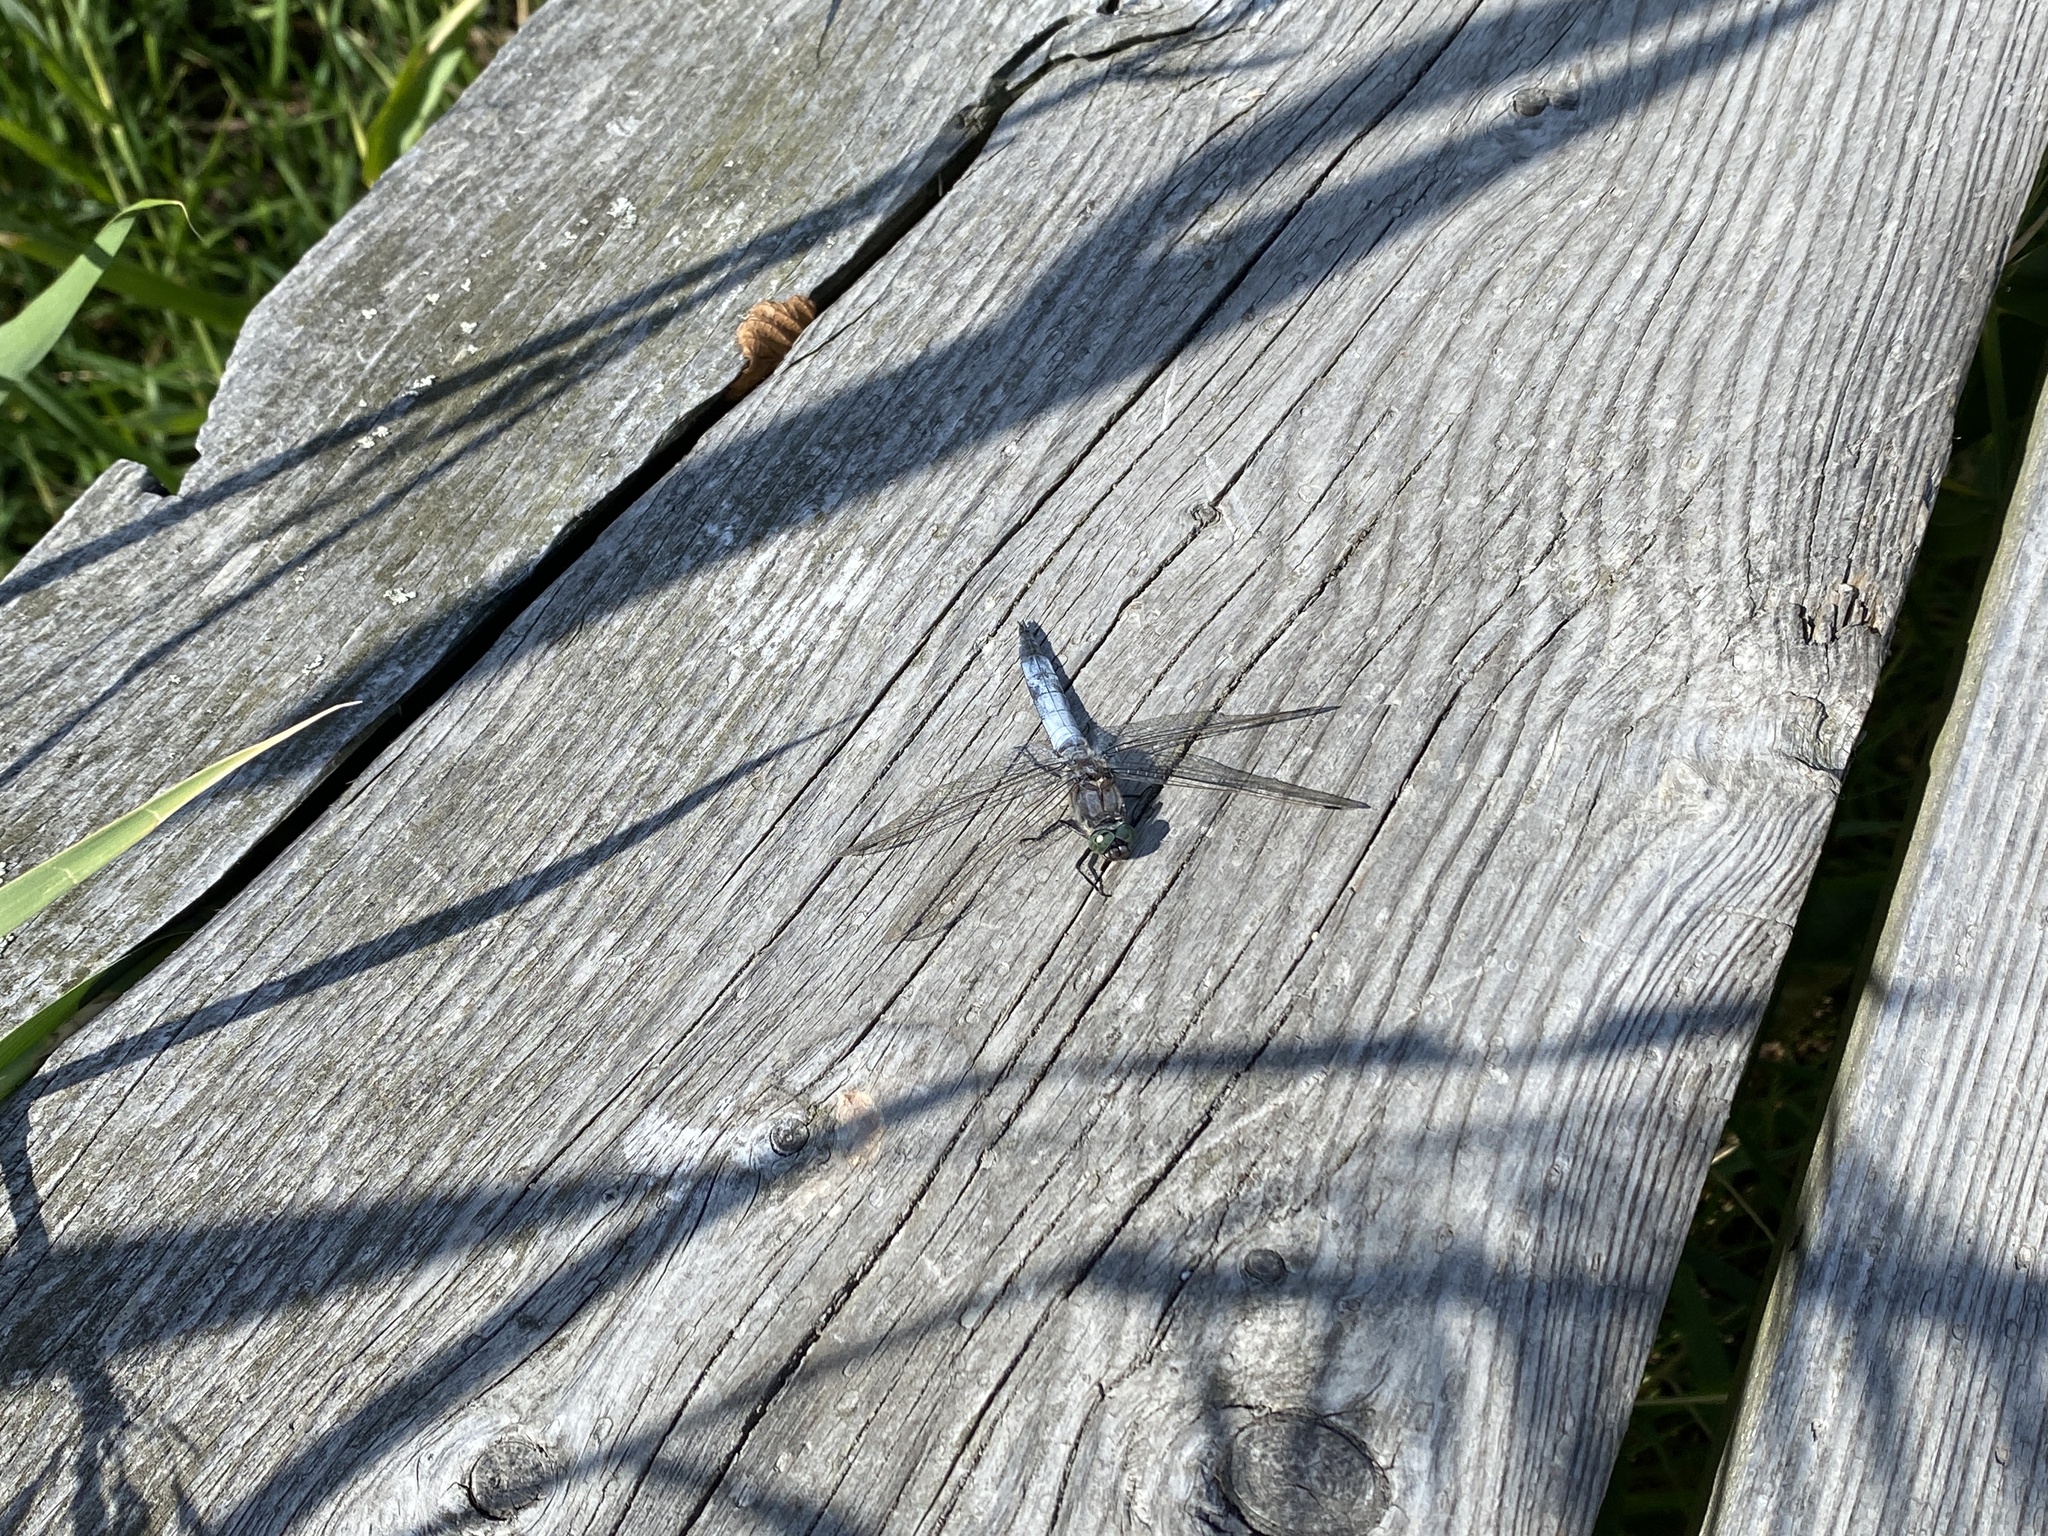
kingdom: Animalia
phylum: Arthropoda
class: Insecta
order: Odonata
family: Libellulidae
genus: Orthetrum
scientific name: Orthetrum cancellatum
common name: Black-tailed skimmer
